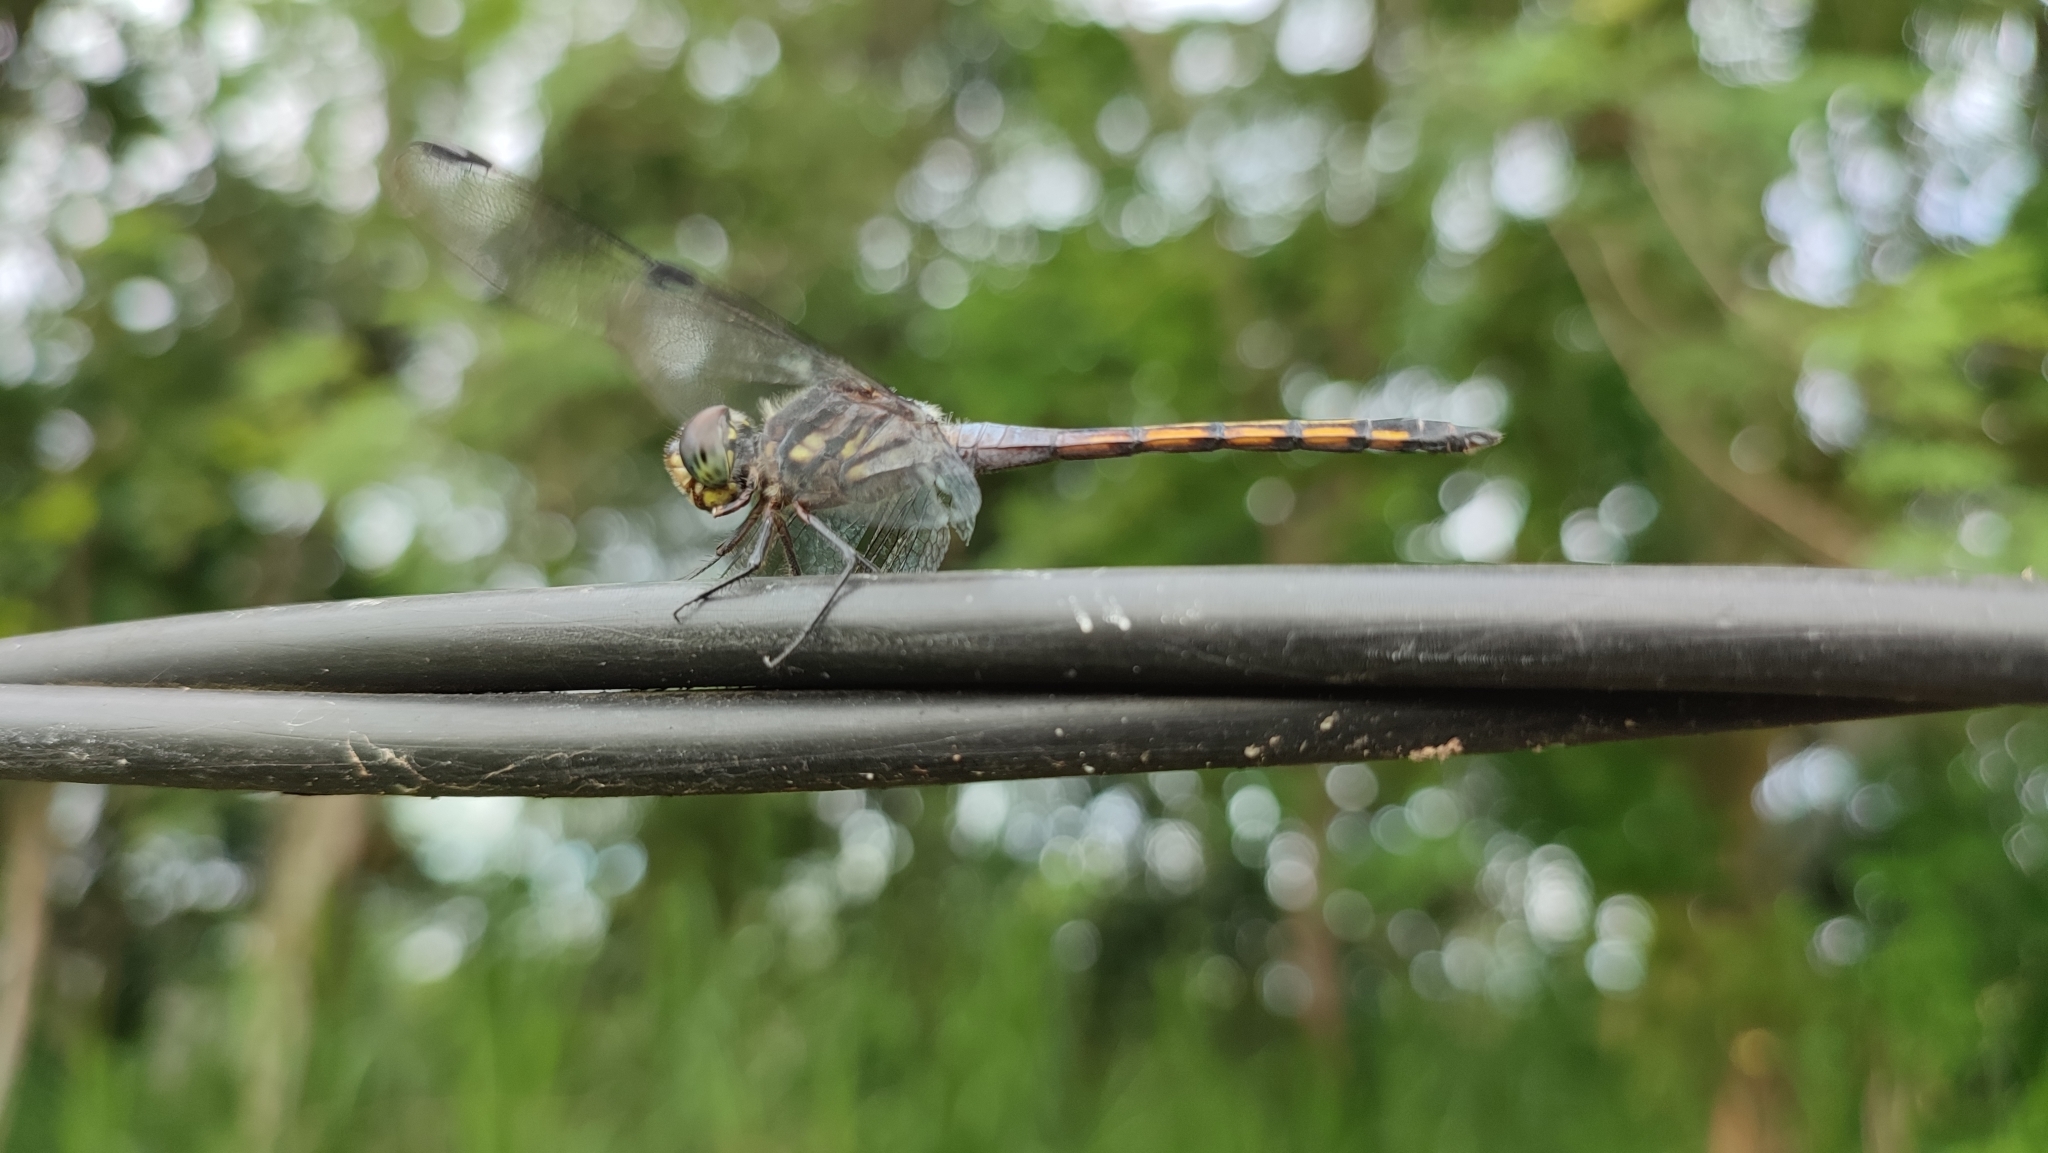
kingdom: Animalia
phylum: Arthropoda
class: Insecta
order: Odonata
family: Libellulidae
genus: Potamarcha
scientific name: Potamarcha congener
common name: Blue chaser
